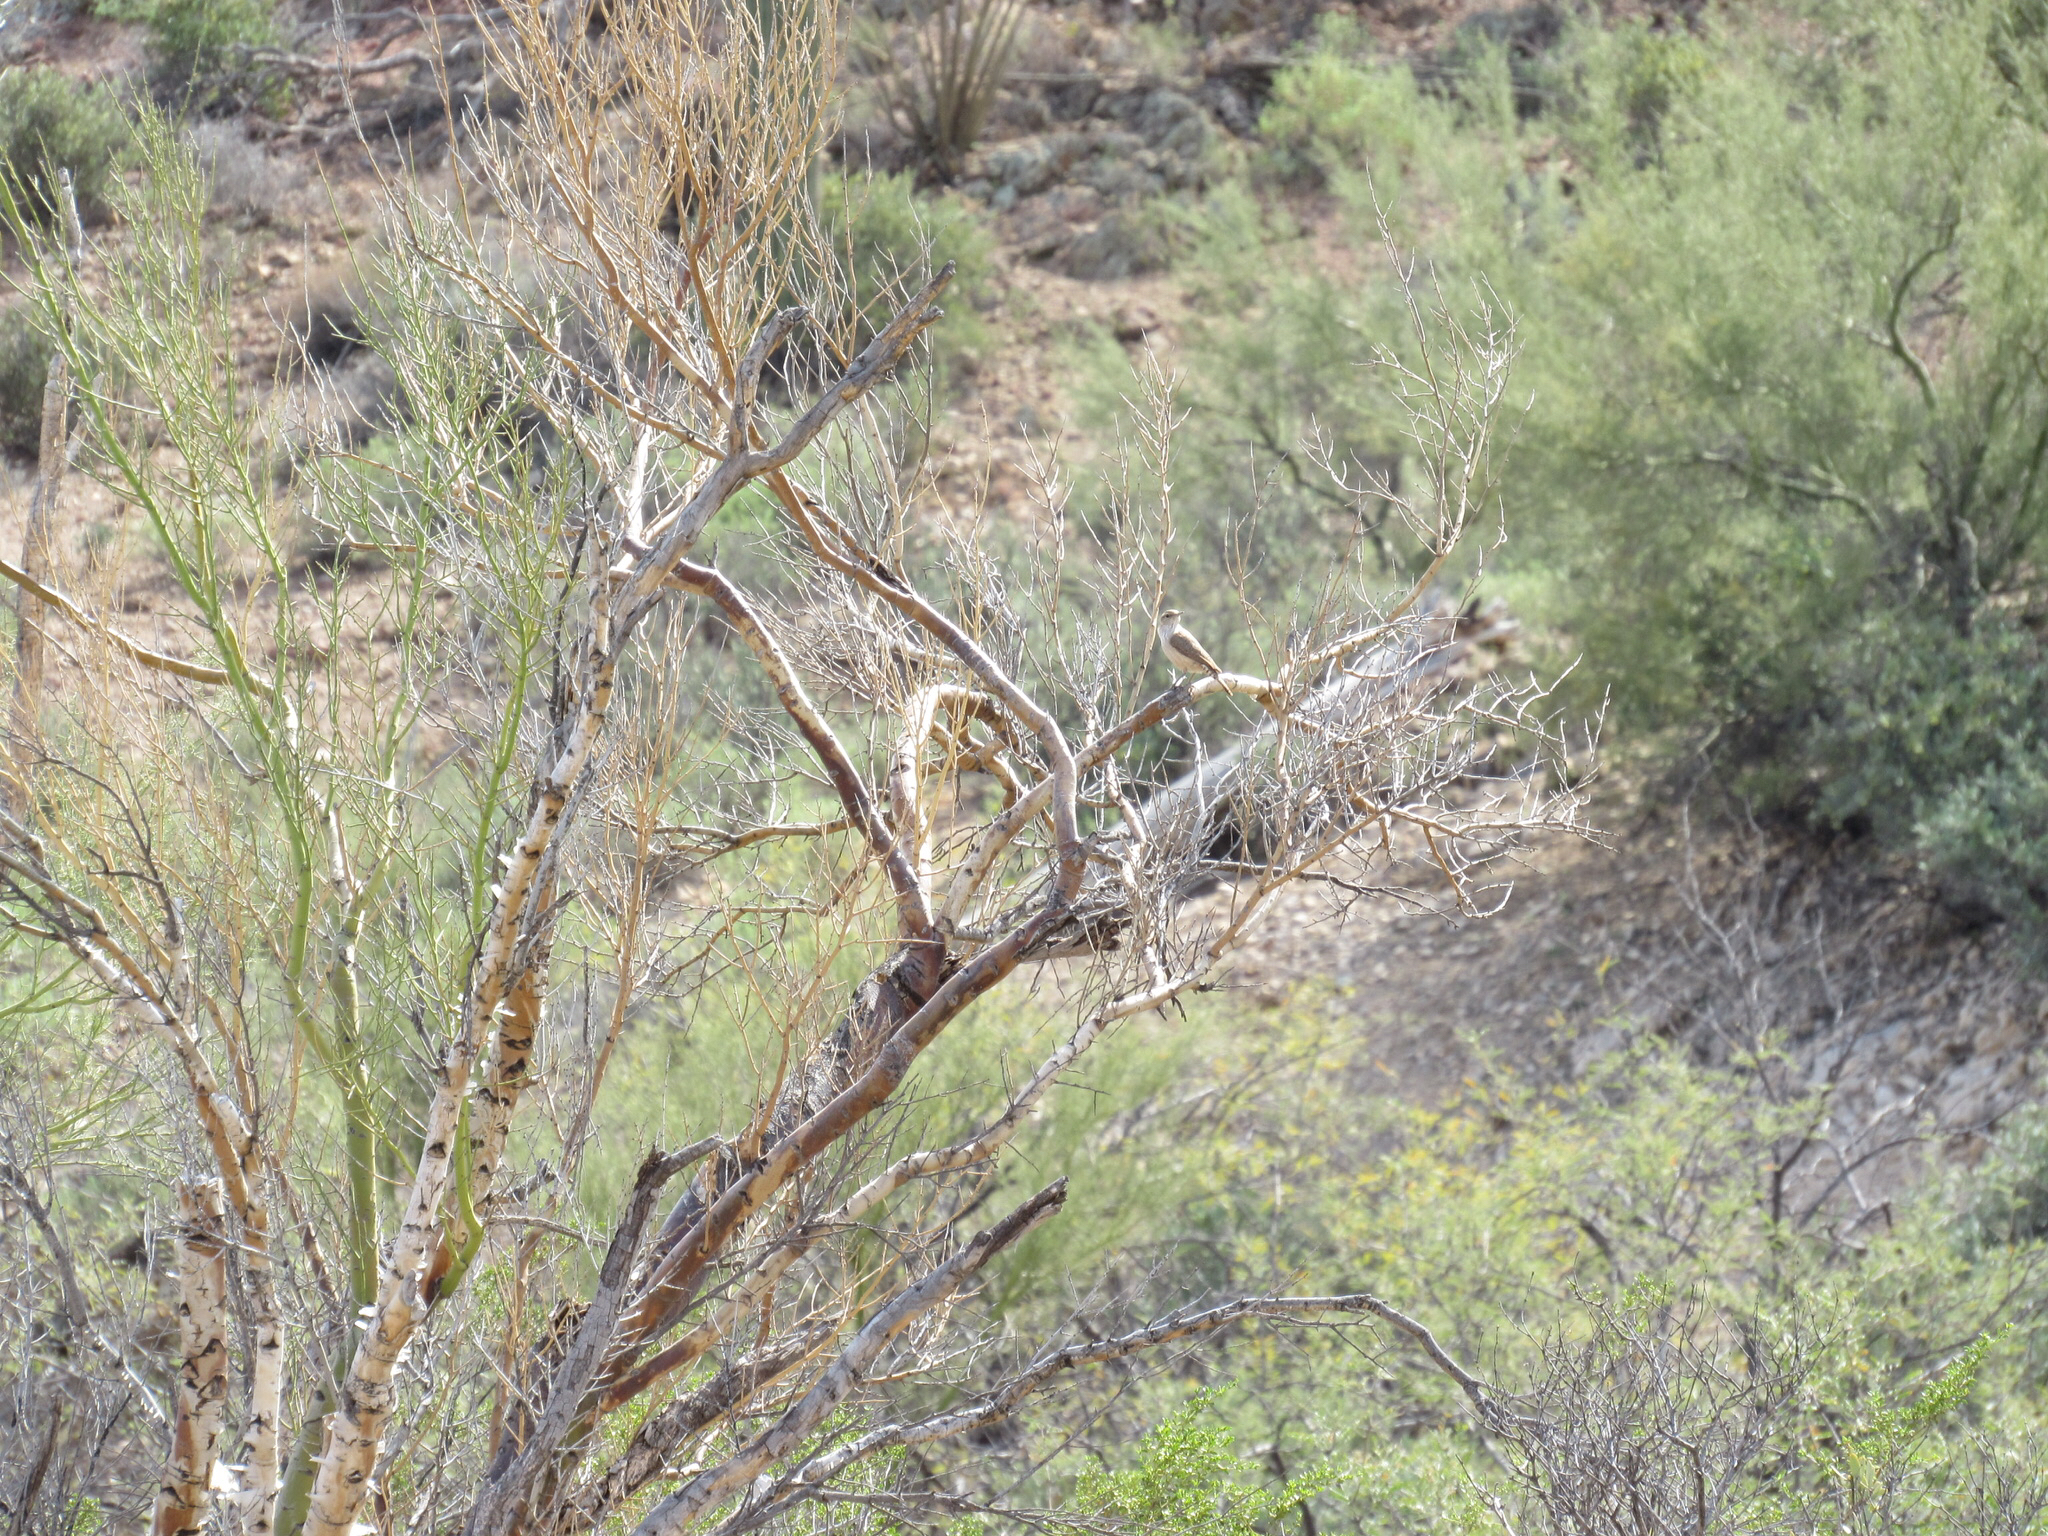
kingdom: Animalia
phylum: Chordata
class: Aves
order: Passeriformes
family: Troglodytidae
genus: Salpinctes
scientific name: Salpinctes obsoletus
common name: Rock wren
